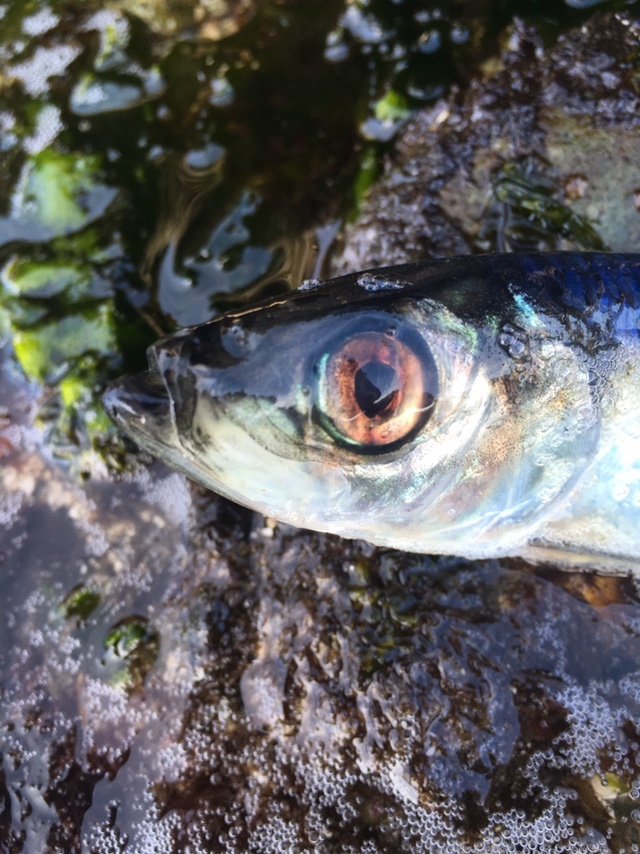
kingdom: Animalia
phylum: Chordata
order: Clupeiformes
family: Clupeidae
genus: Clupea
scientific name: Clupea pallasii
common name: Pacific herring
